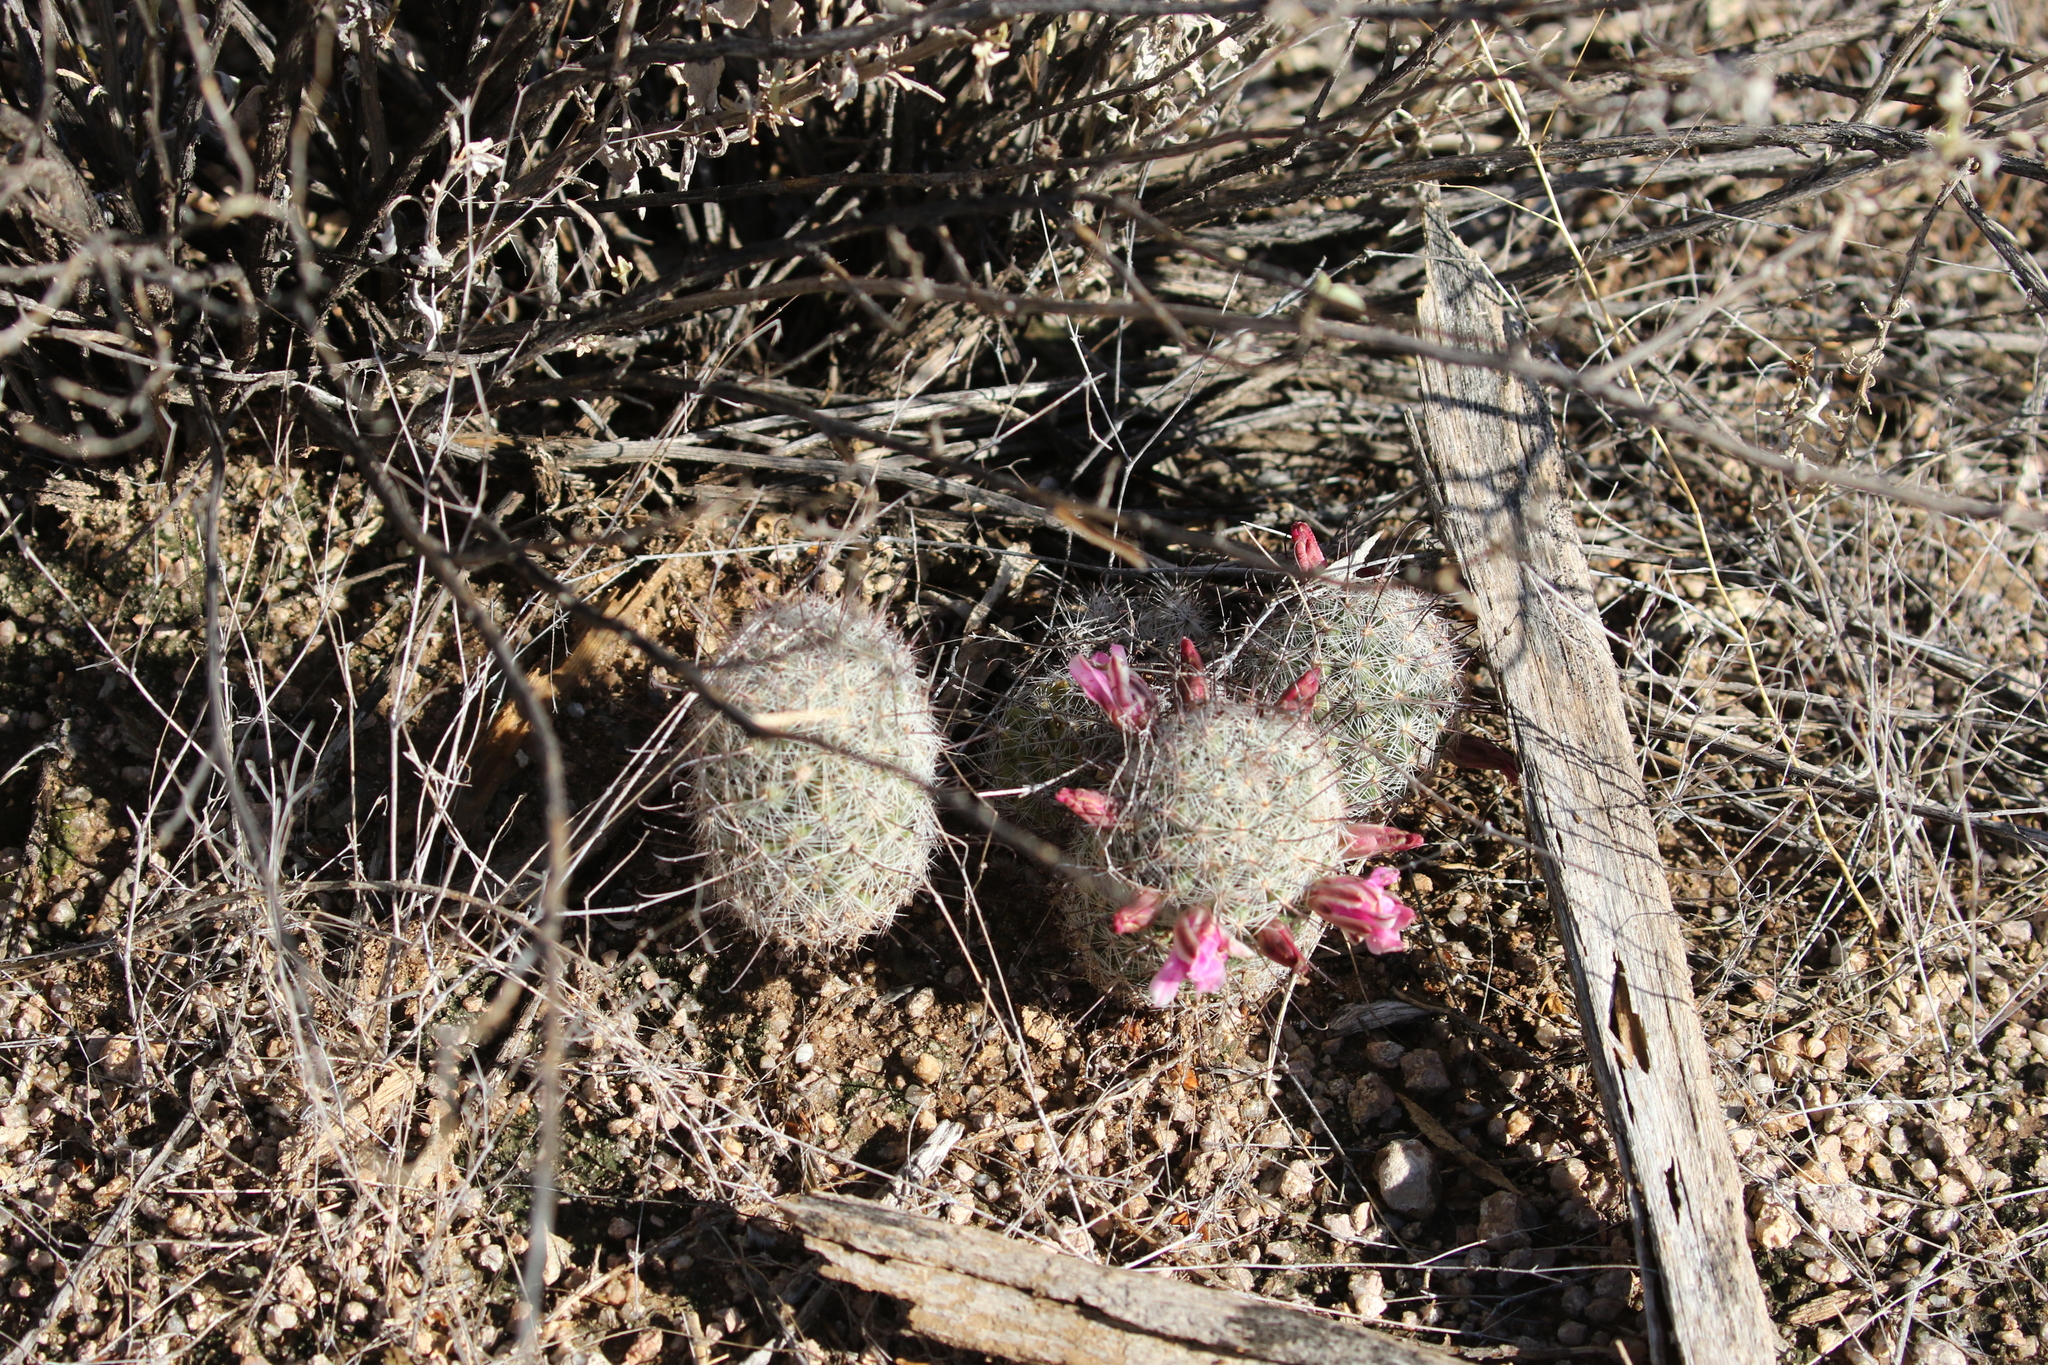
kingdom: Plantae
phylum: Tracheophyta
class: Magnoliopsida
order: Caryophyllales
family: Cactaceae
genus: Cochemiea
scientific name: Cochemiea grahamii
